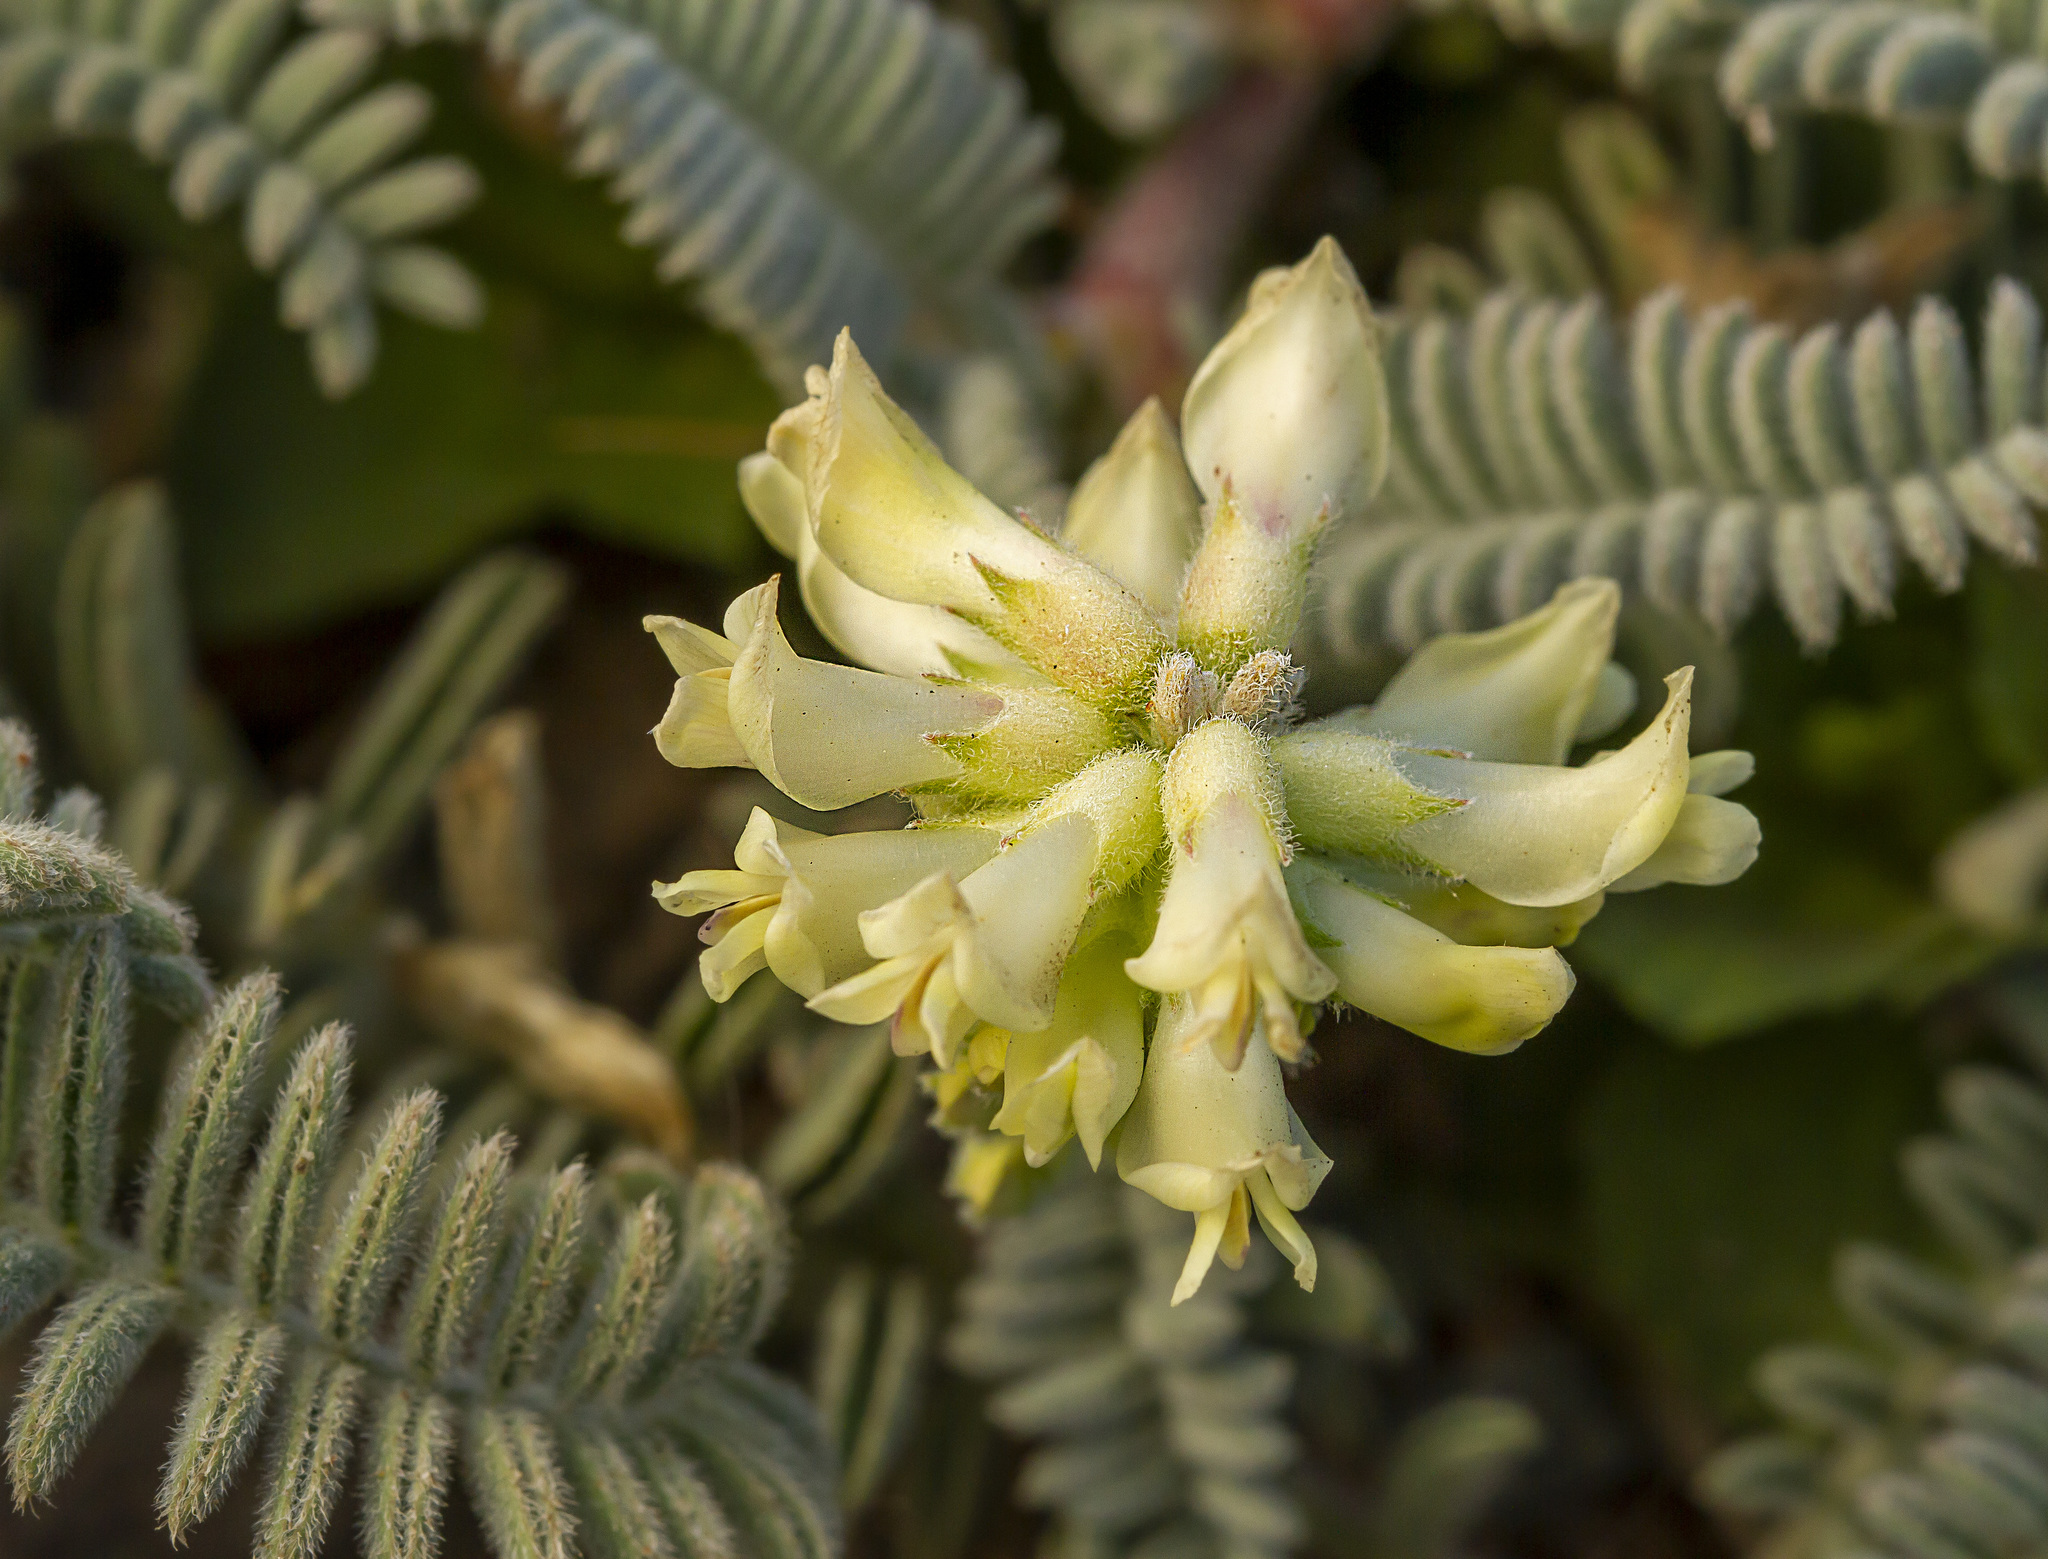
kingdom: Plantae
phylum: Tracheophyta
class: Magnoliopsida
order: Fabales
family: Fabaceae
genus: Astragalus
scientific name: Astragalus nuttallii
